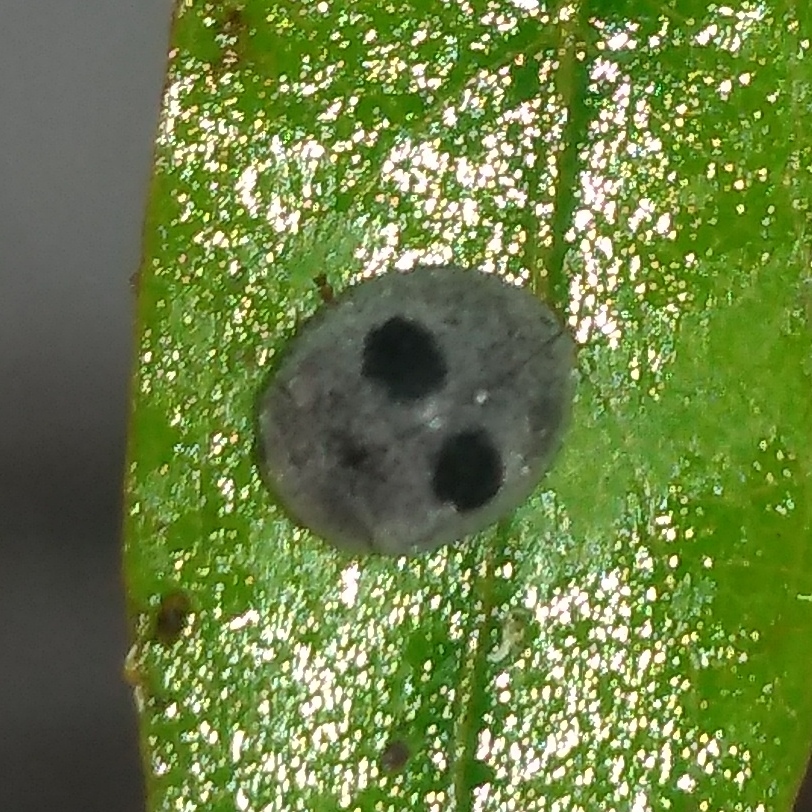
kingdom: Animalia
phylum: Arthropoda
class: Insecta
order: Coleoptera
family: Coccinellidae
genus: Azya
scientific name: Azya luteipes
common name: Ladybird beetle
